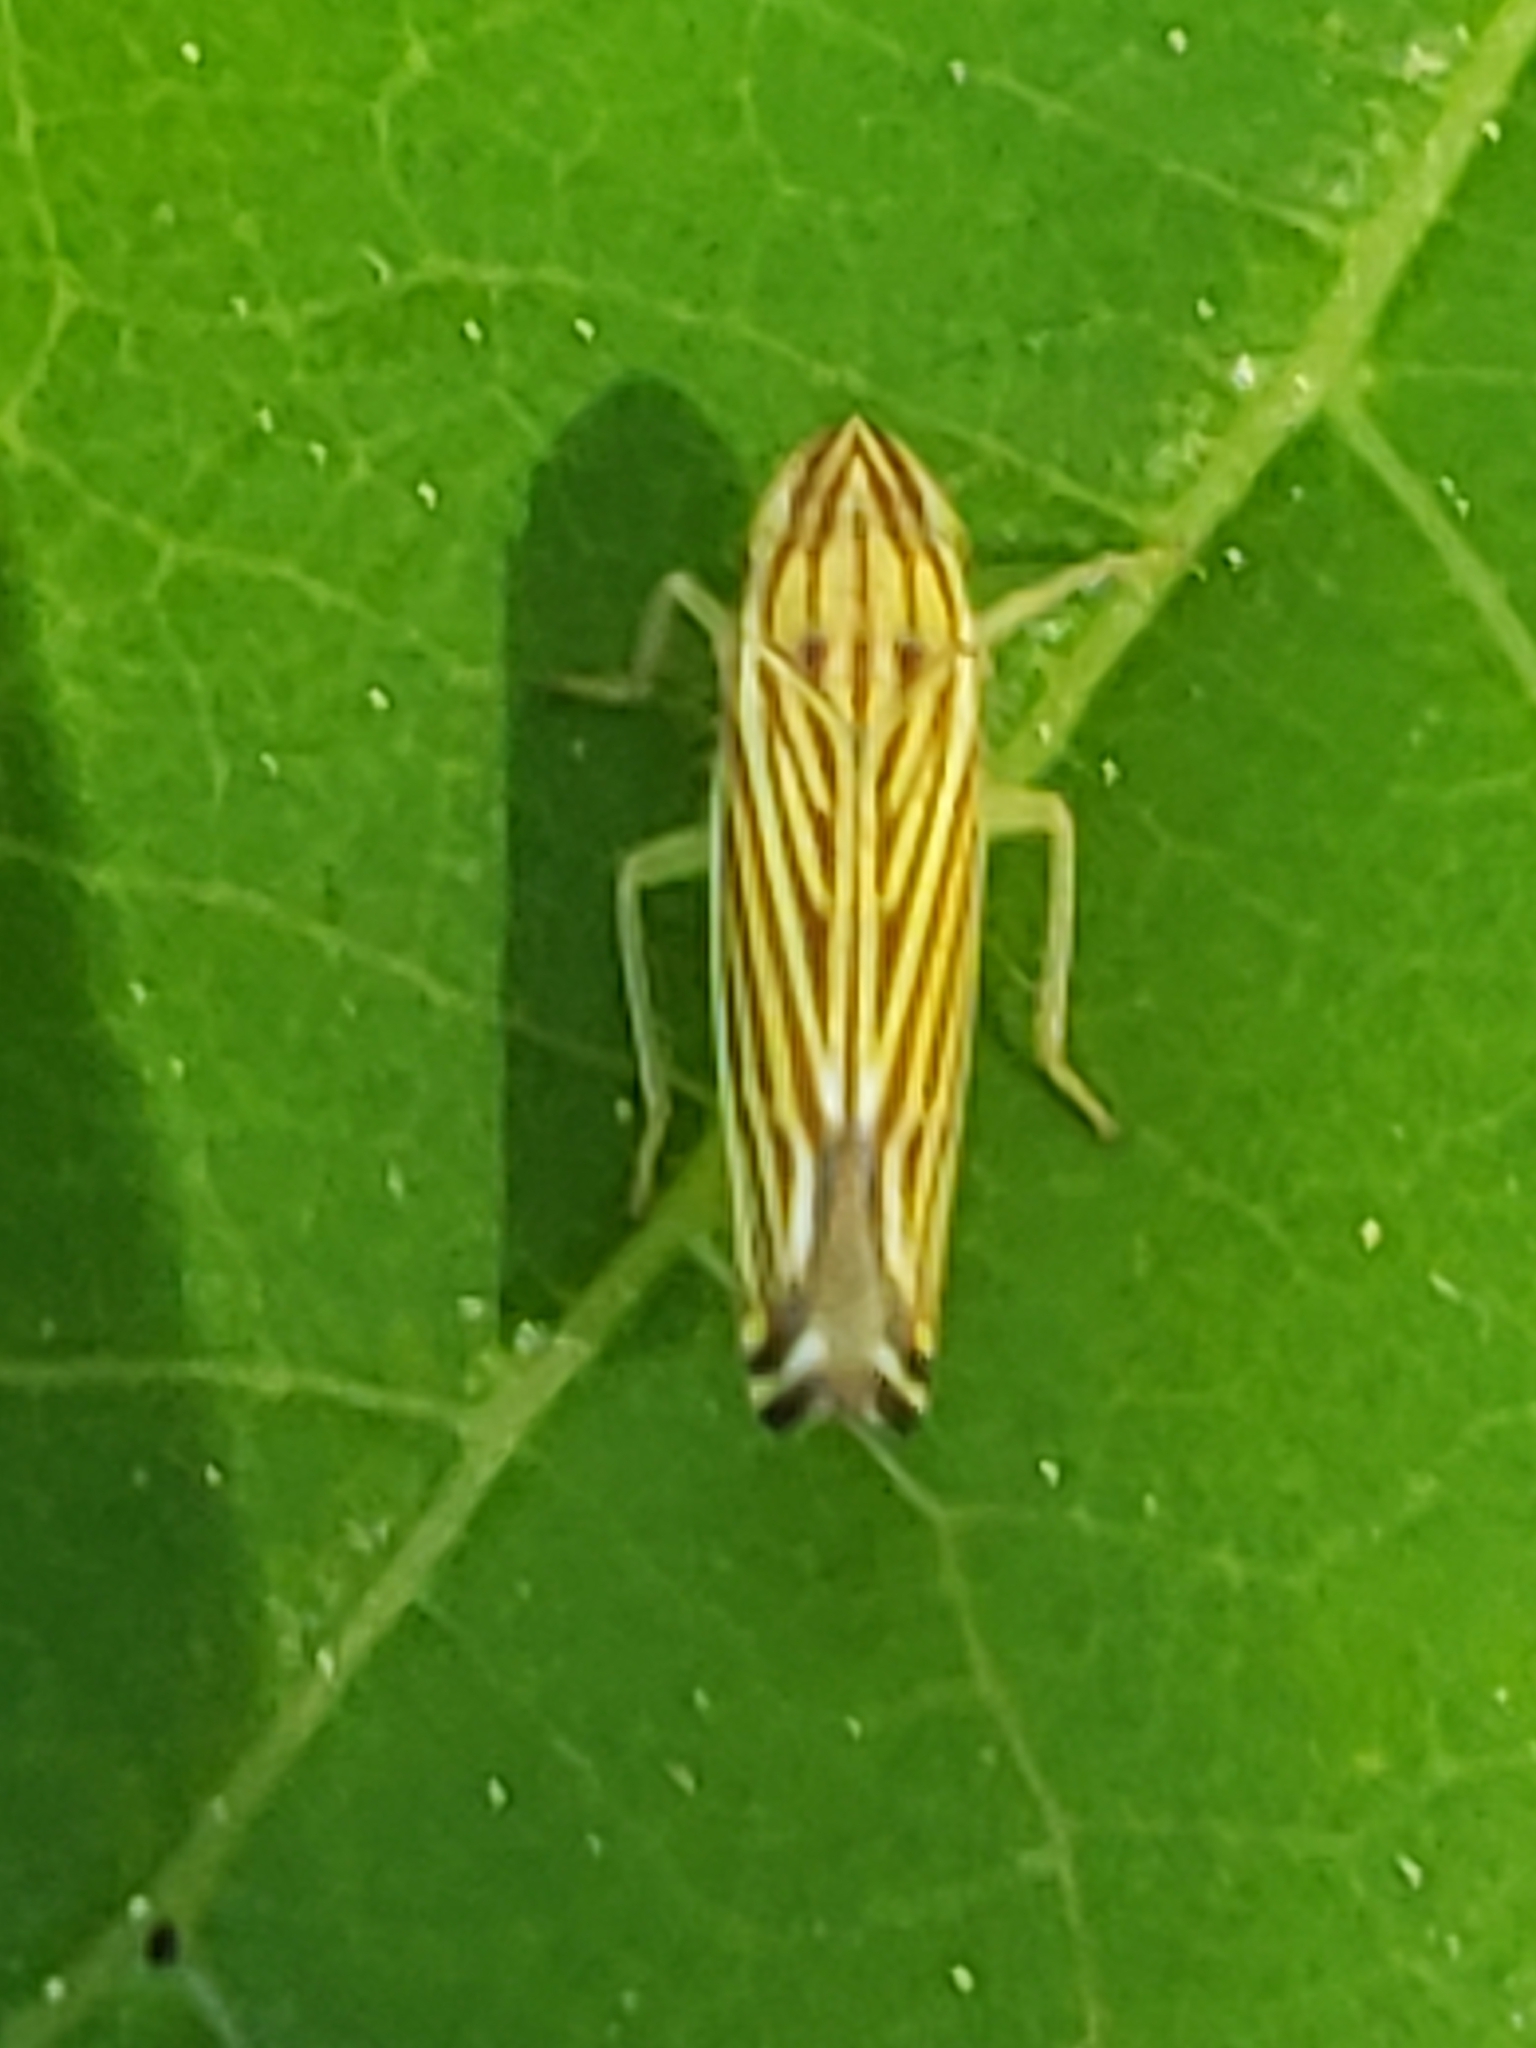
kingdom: Animalia
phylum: Arthropoda
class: Insecta
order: Hemiptera
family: Cicadellidae
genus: Sibovia
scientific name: Sibovia occatoria
